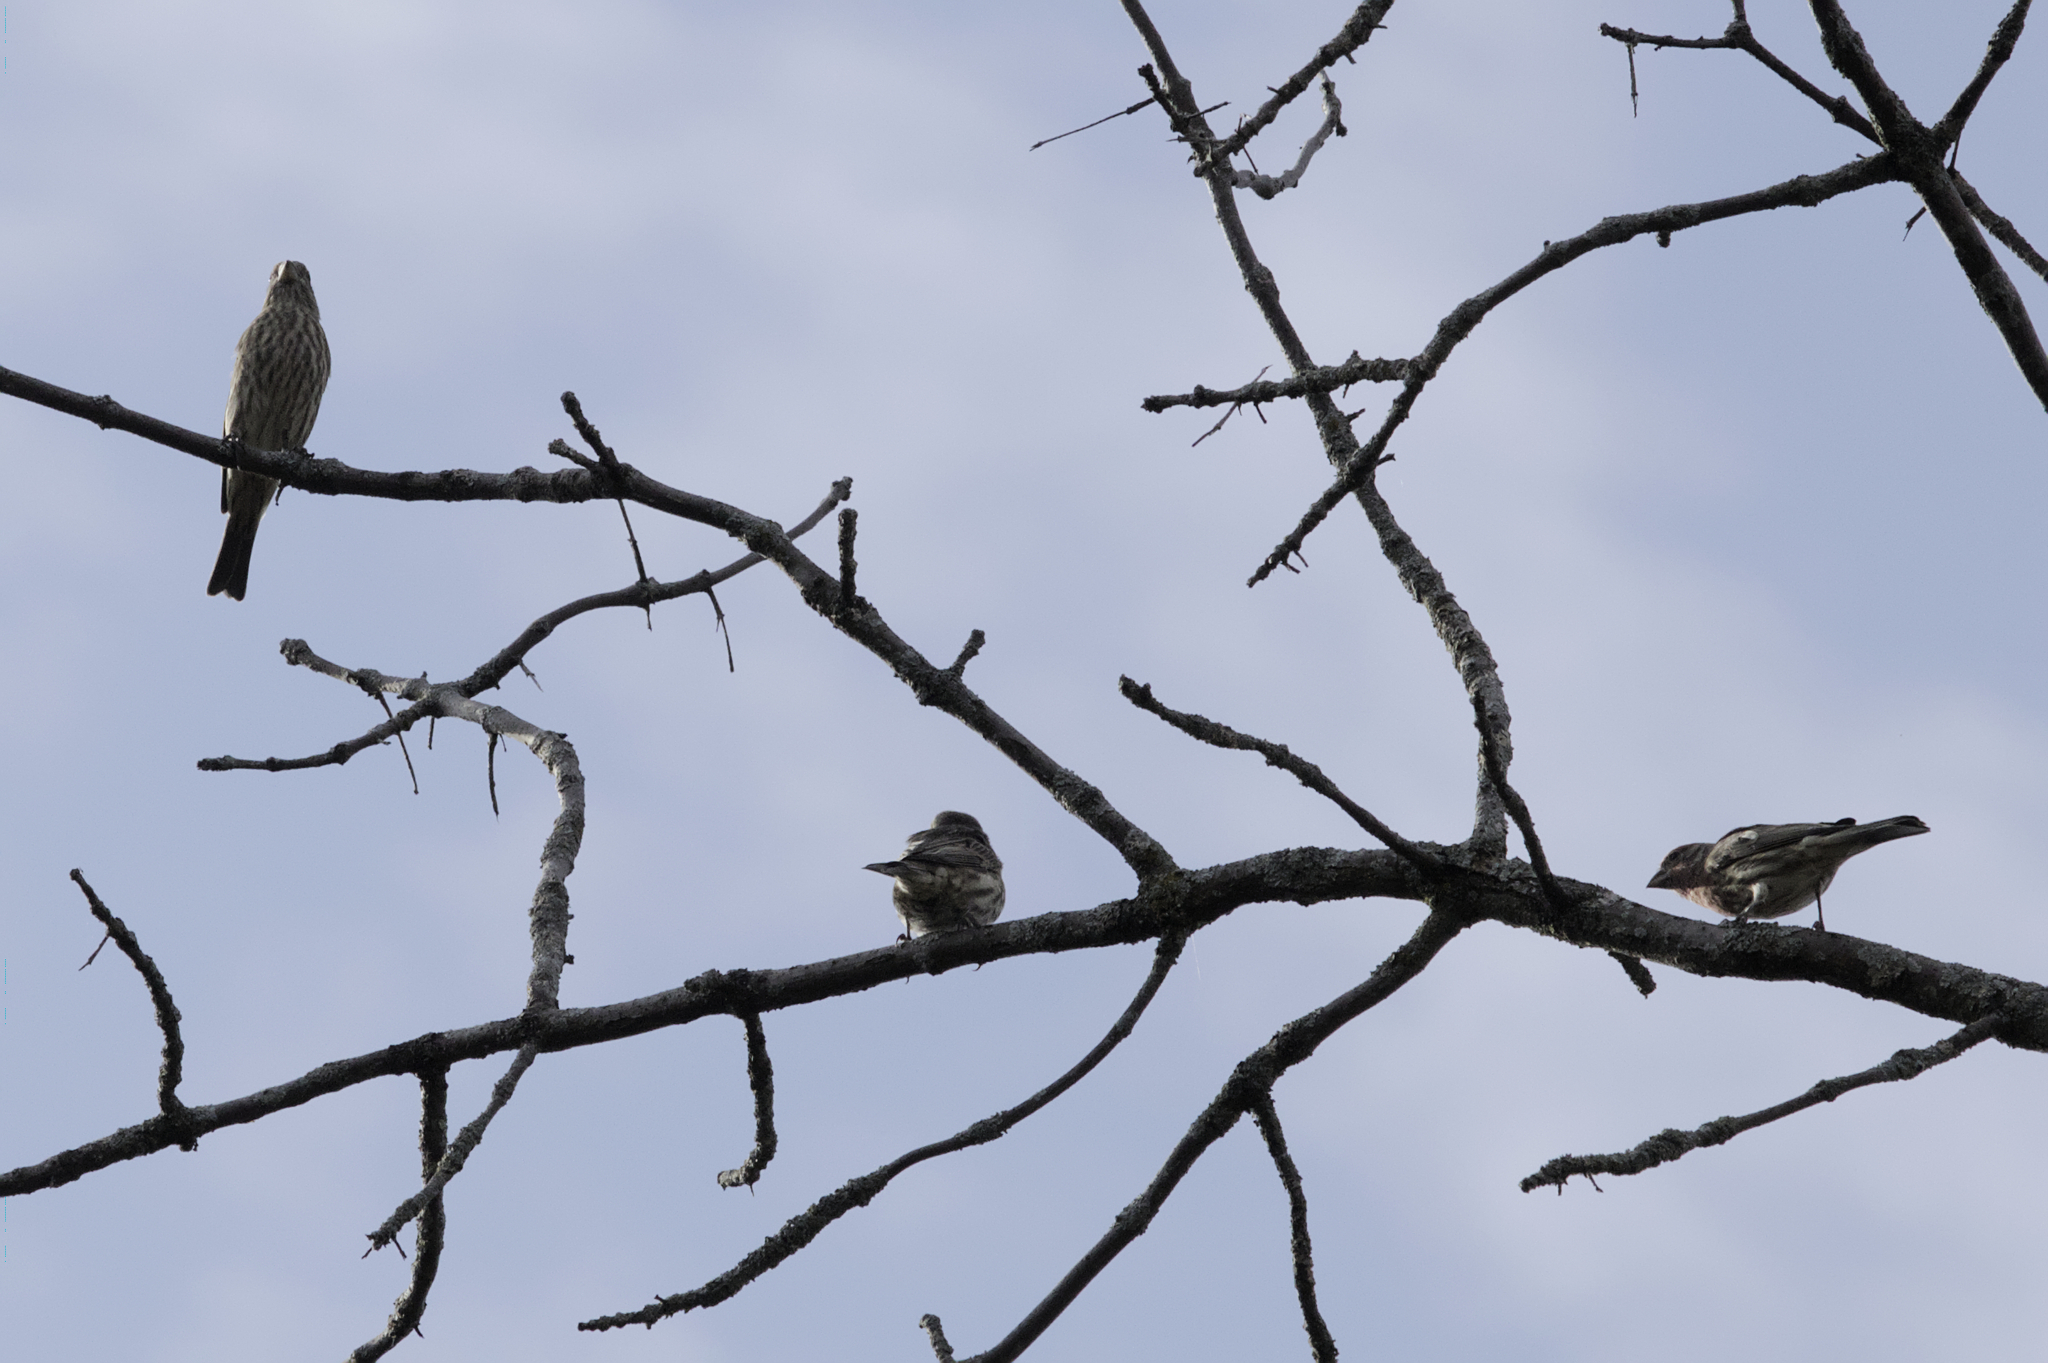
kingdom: Animalia
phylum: Chordata
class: Aves
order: Passeriformes
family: Fringillidae
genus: Haemorhous
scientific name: Haemorhous mexicanus
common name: House finch
